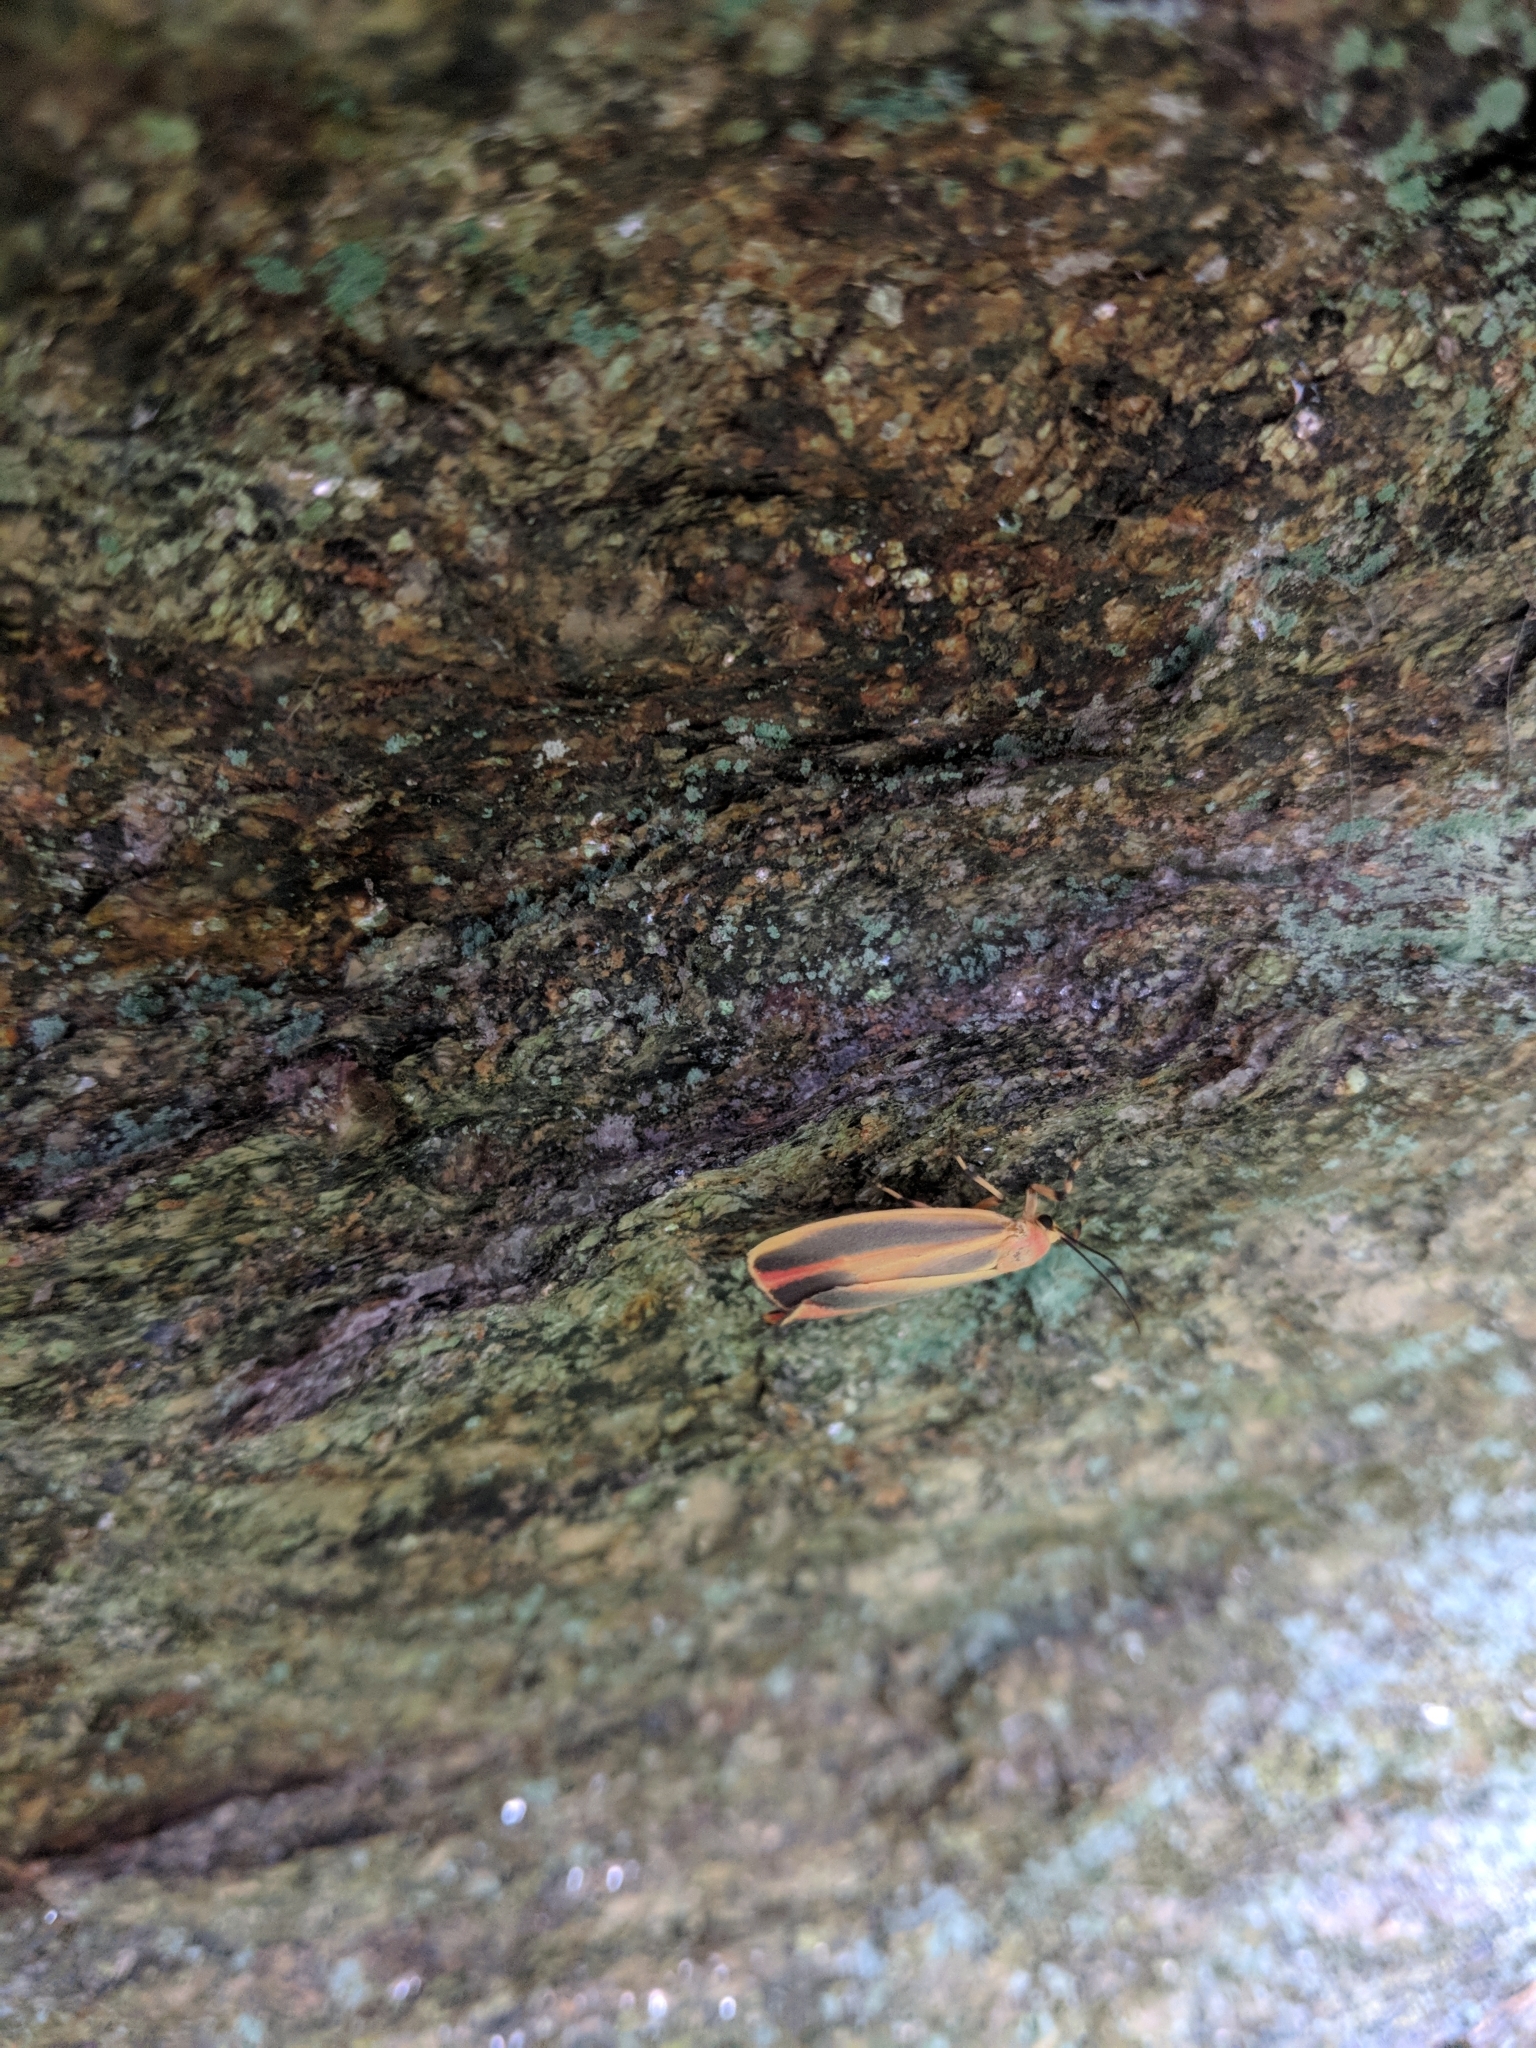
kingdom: Animalia
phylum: Arthropoda
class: Insecta
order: Lepidoptera
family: Erebidae
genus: Hypoprepia
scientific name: Hypoprepia fucosa
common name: Painted lichen moth
